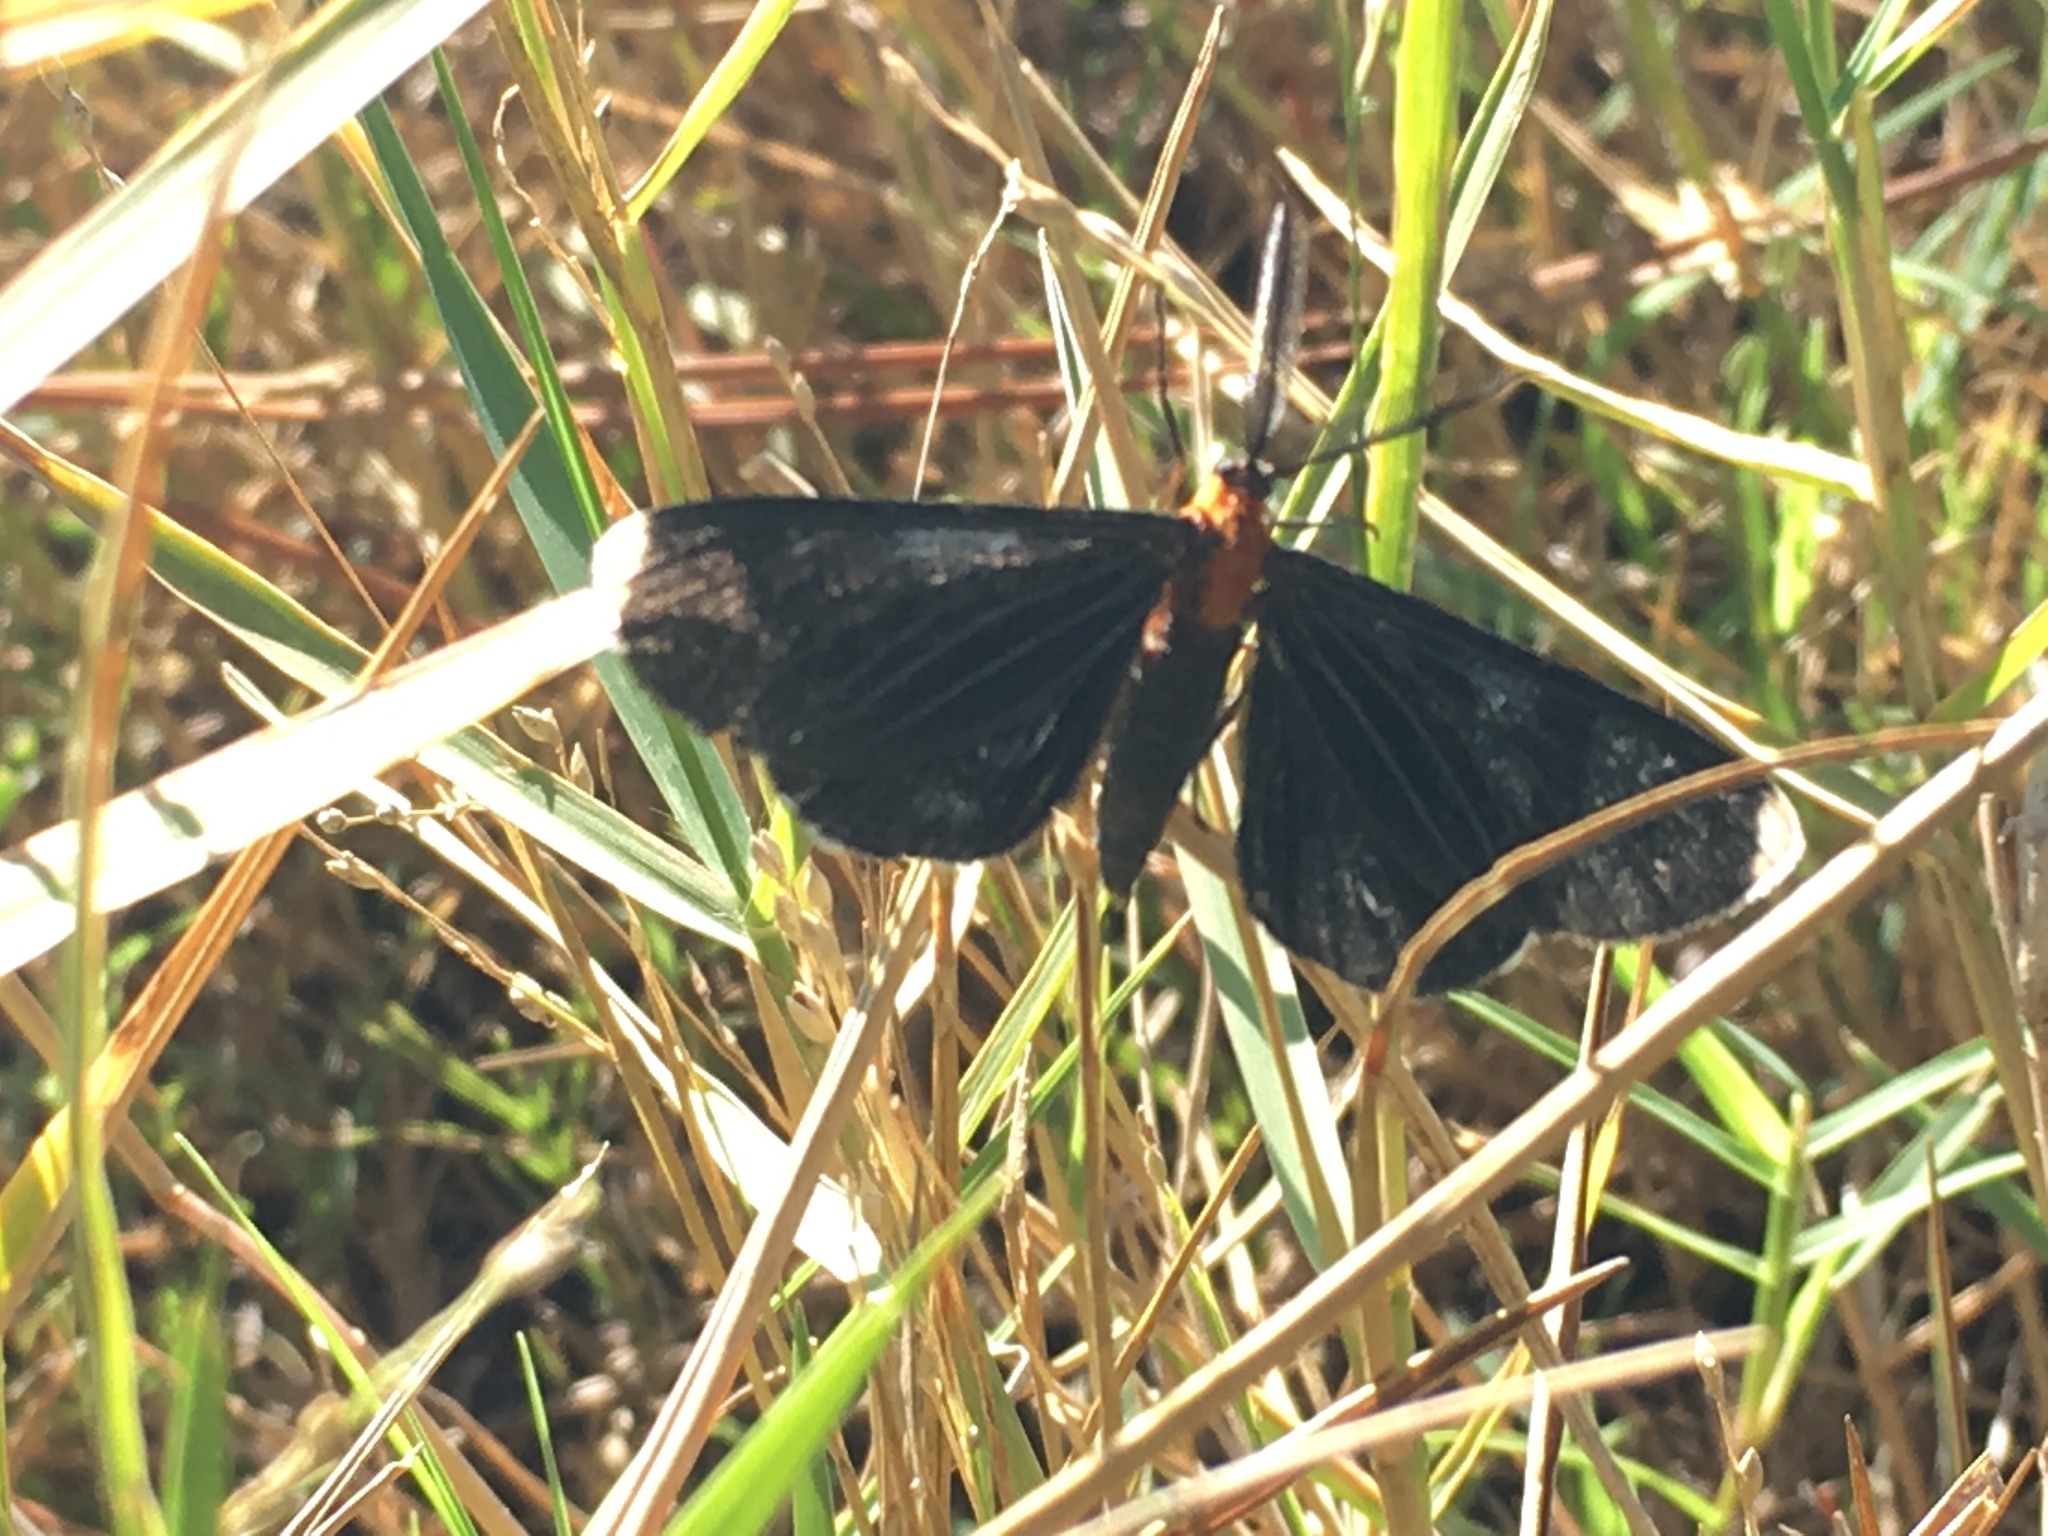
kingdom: Animalia
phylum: Arthropoda
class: Insecta
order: Lepidoptera
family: Geometridae
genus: Melanchroia
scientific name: Melanchroia chephise
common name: White-tipped black
